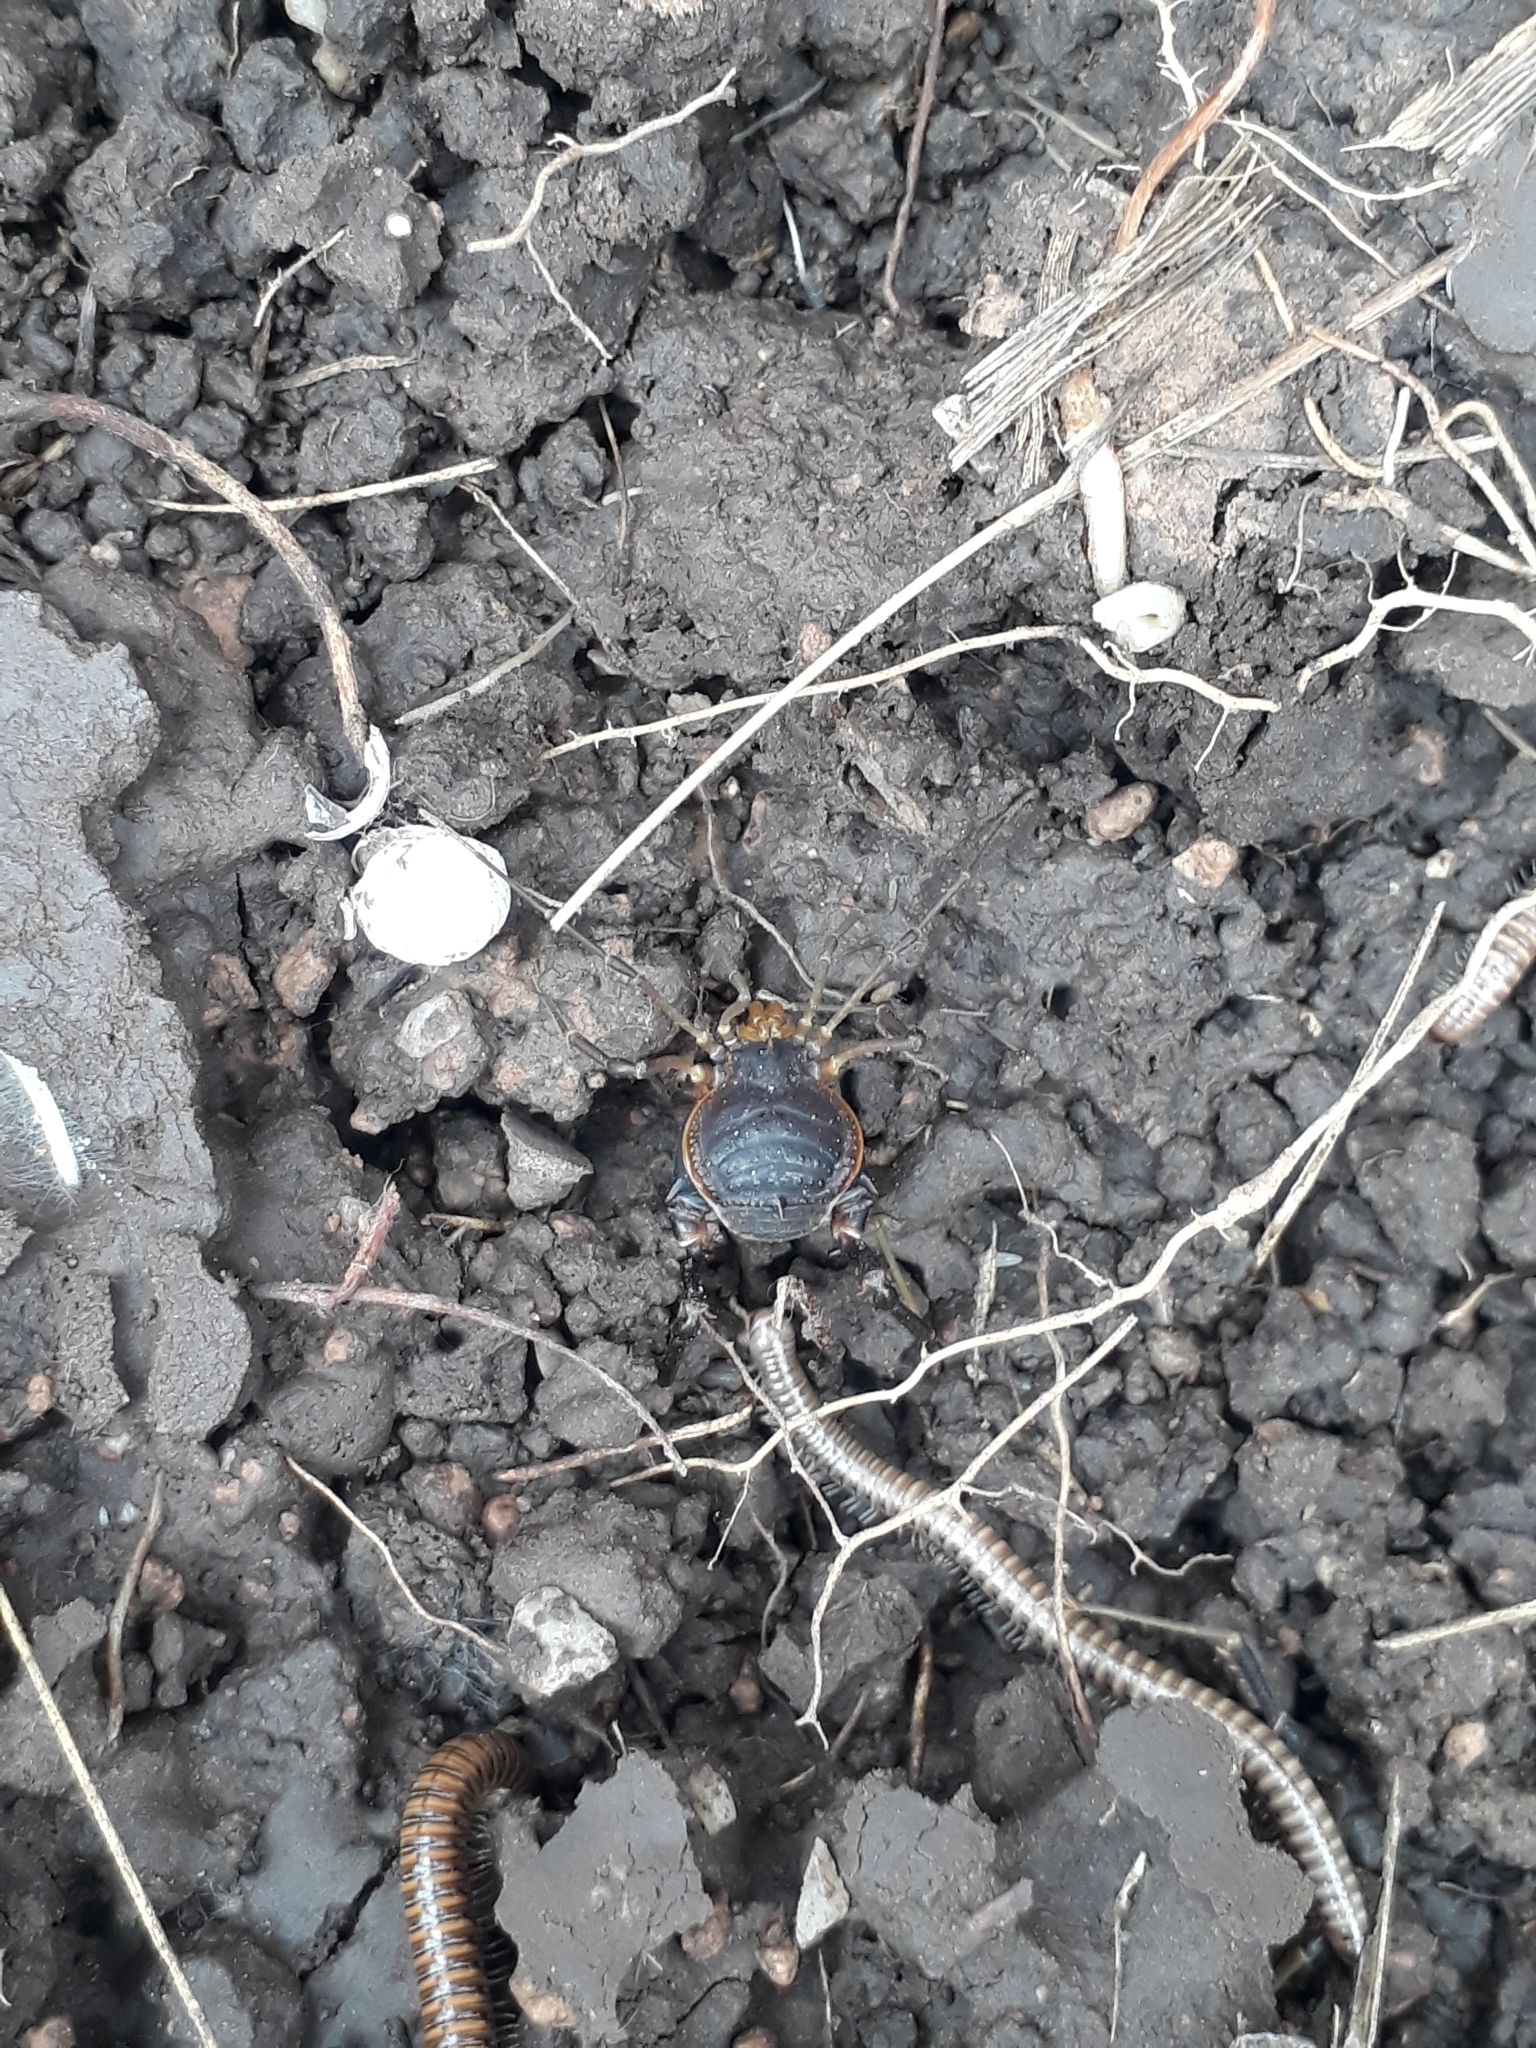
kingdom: Animalia
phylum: Arthropoda
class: Arachnida
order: Opiliones
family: Gonyleptidae
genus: Acanthopachylus
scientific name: Acanthopachylus robustus
